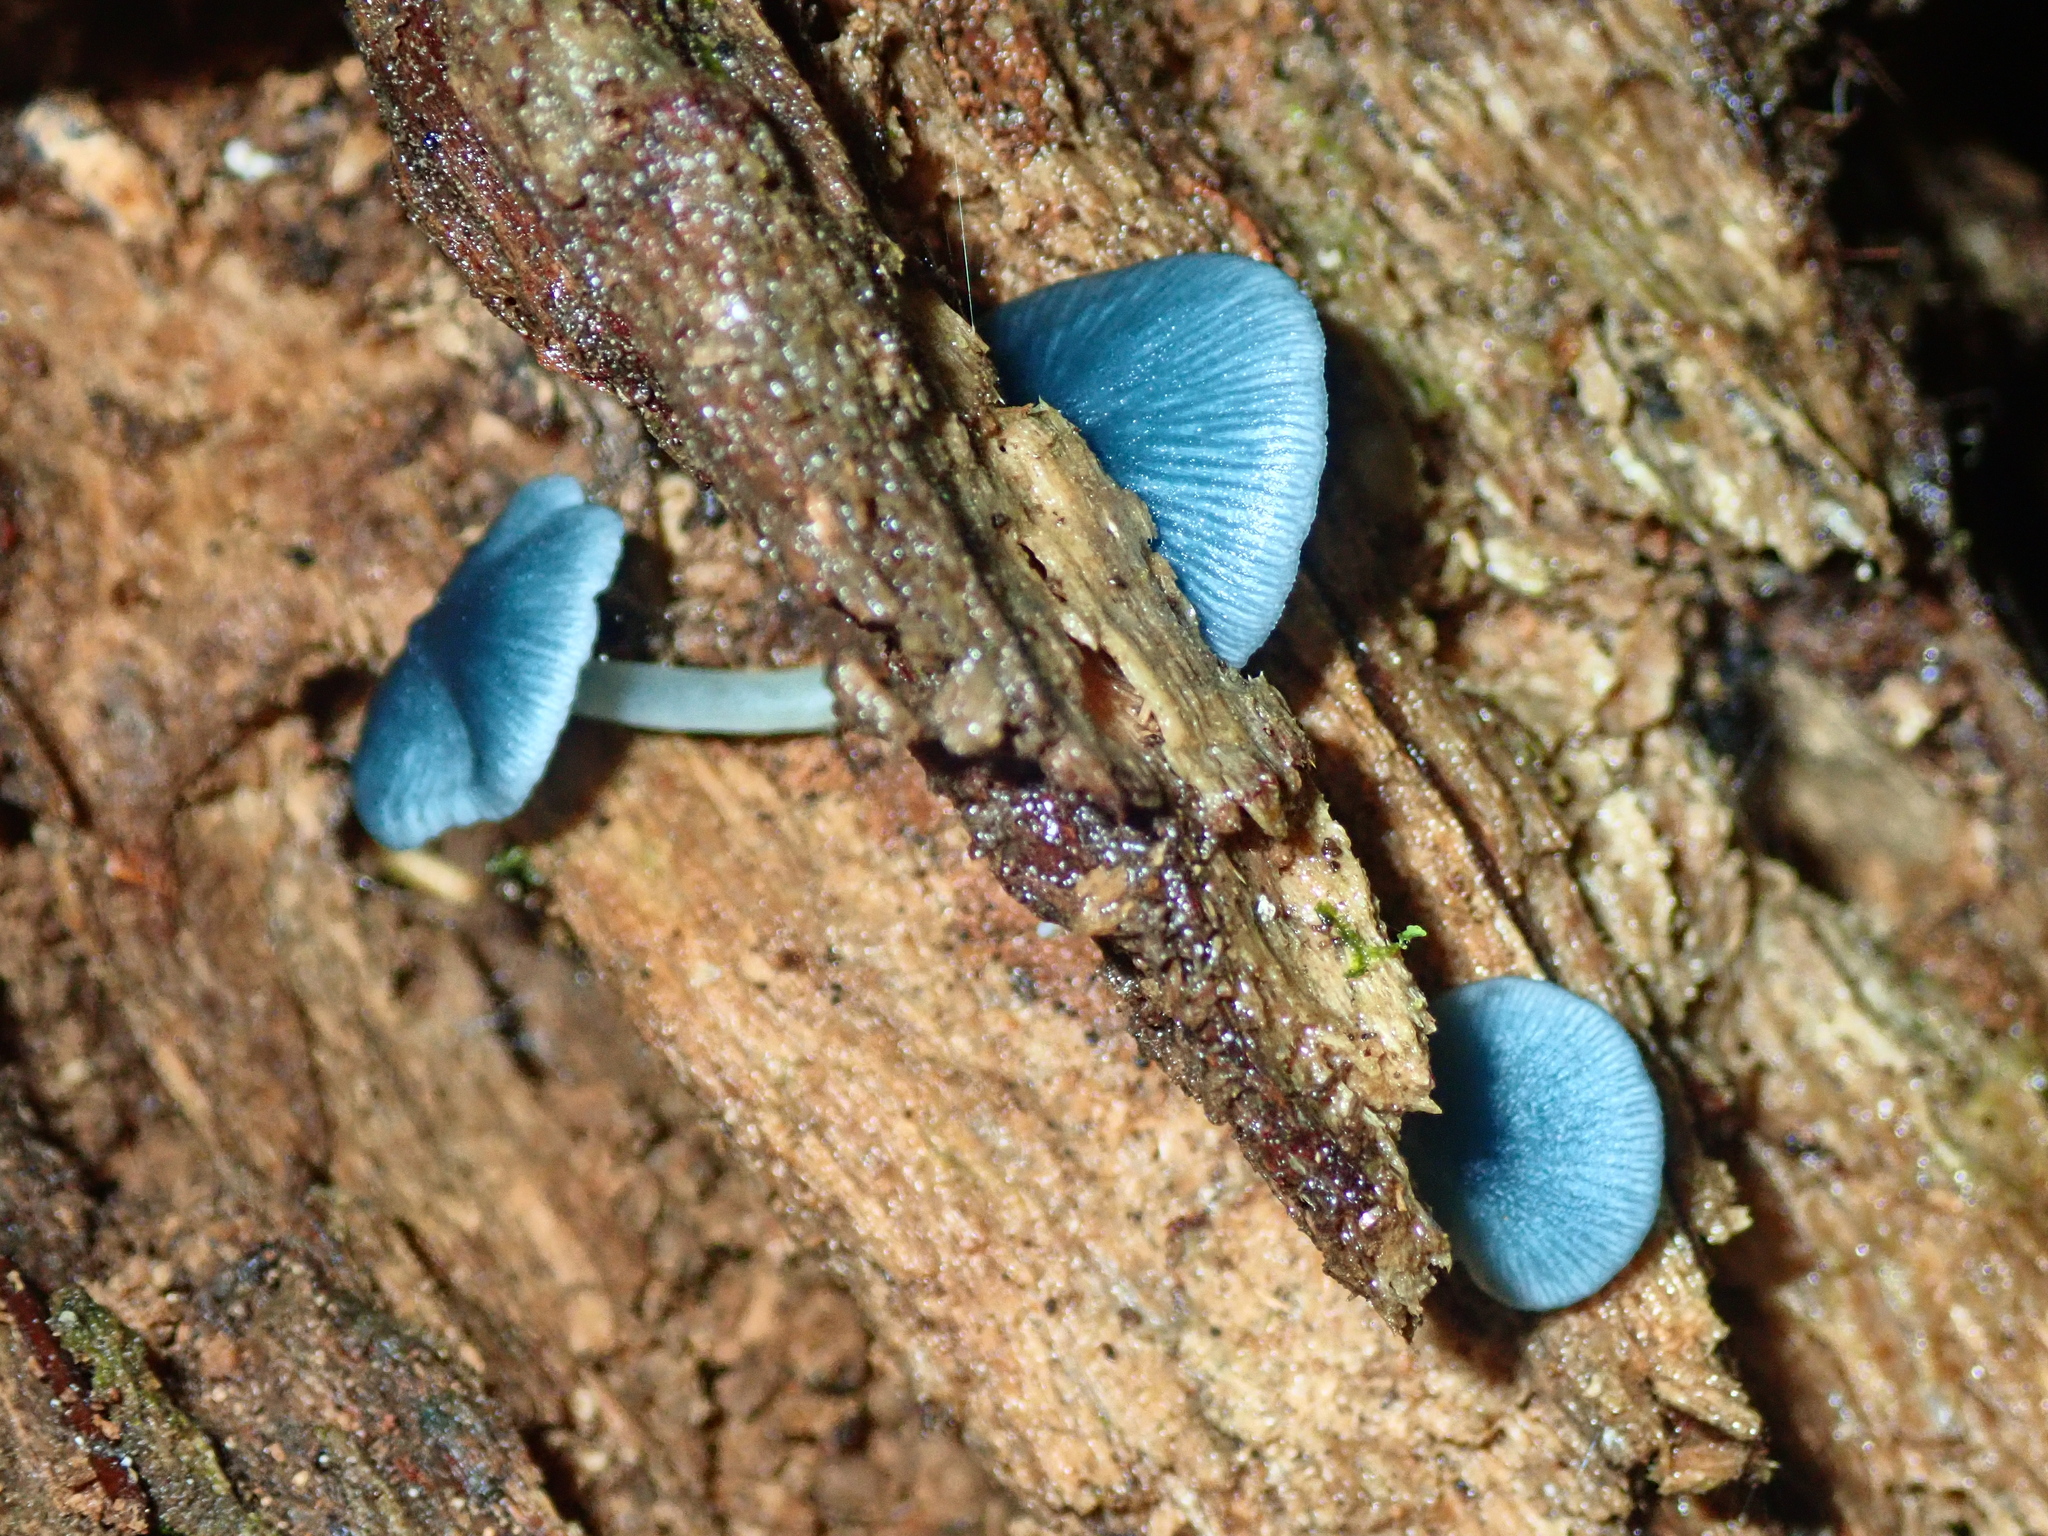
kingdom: Fungi
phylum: Basidiomycota
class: Agaricomycetes
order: Agaricales
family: Marasmiaceae
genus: Clitocybula
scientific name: Clitocybula azurea
